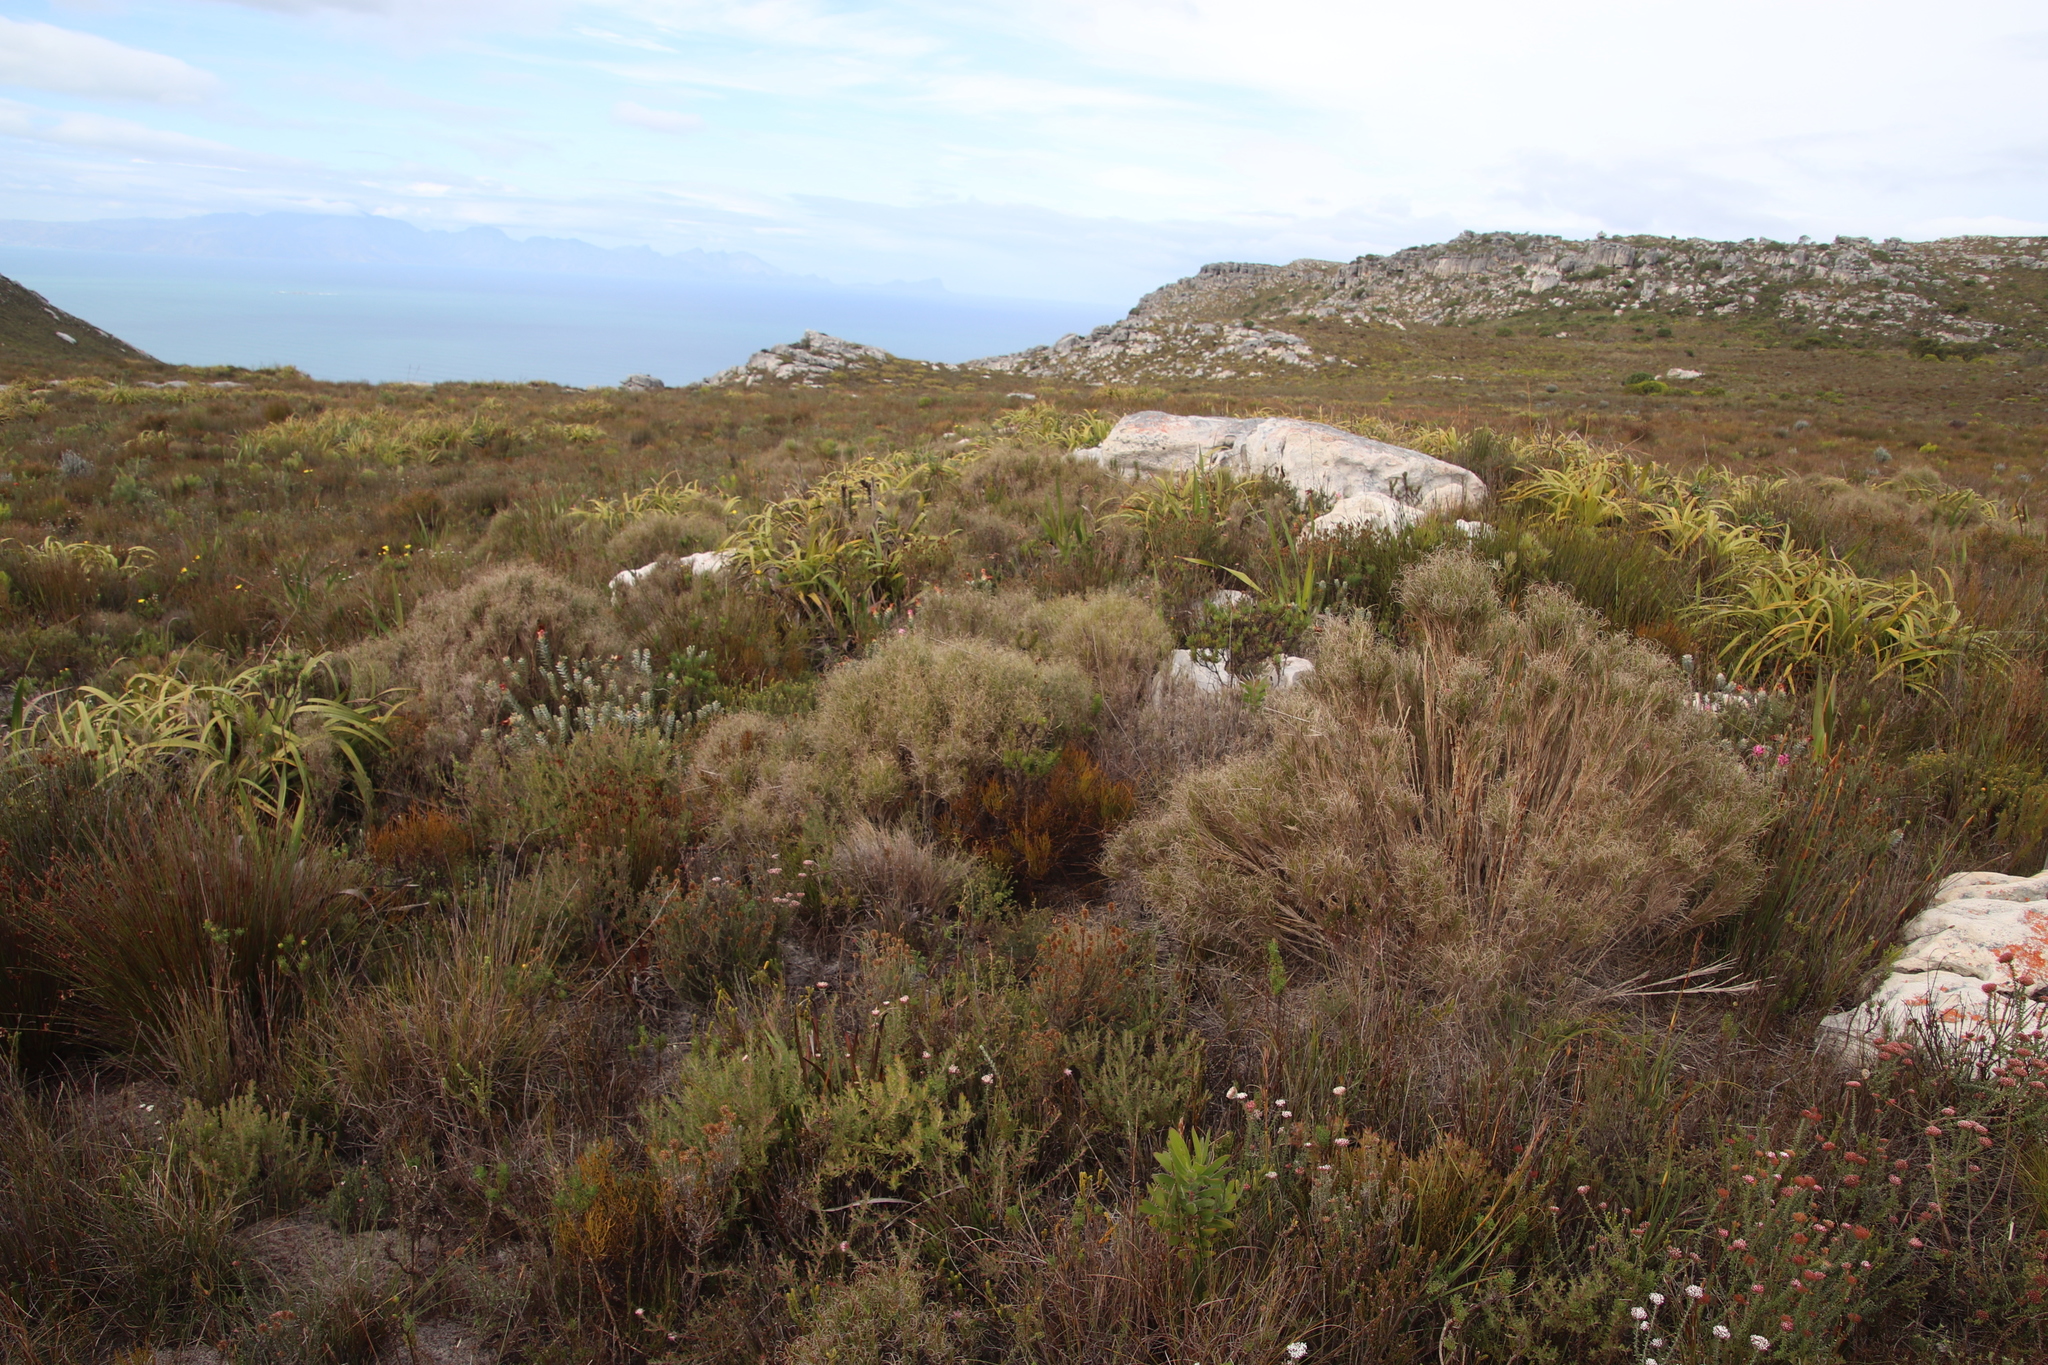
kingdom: Plantae
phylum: Tracheophyta
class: Liliopsida
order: Poales
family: Poaceae
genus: Pseudopentameris
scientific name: Pseudopentameris macrantha
